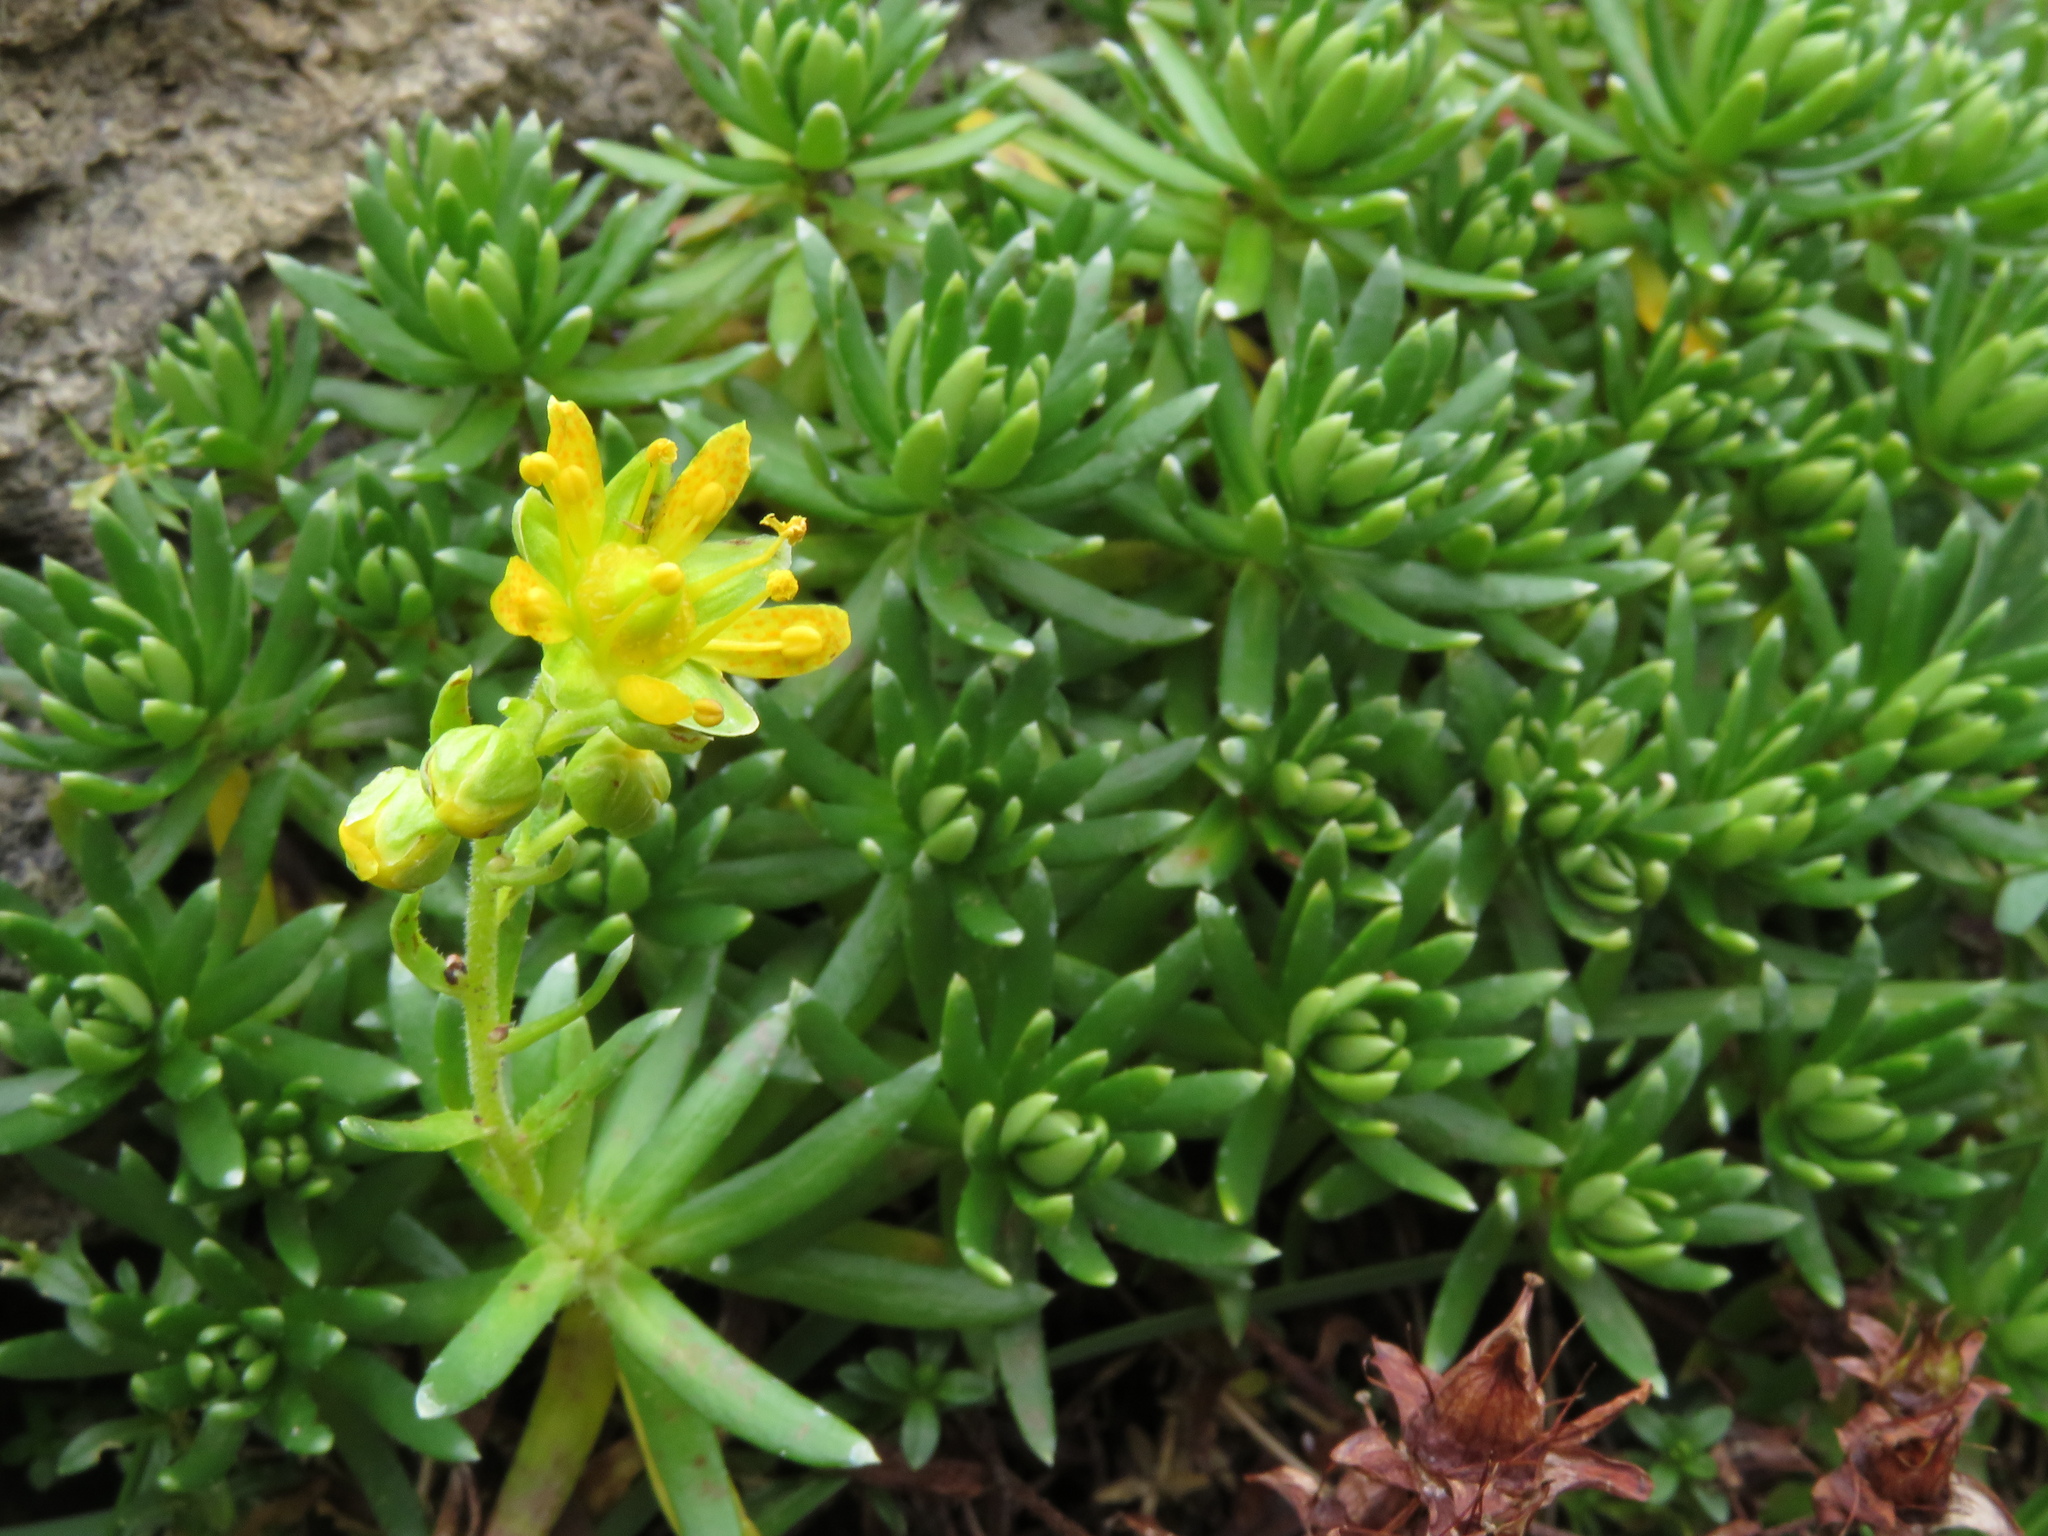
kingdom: Plantae
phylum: Tracheophyta
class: Magnoliopsida
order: Saxifragales
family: Saxifragaceae
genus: Saxifraga
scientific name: Saxifraga aizoides
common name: Yellow mountain saxifrage
